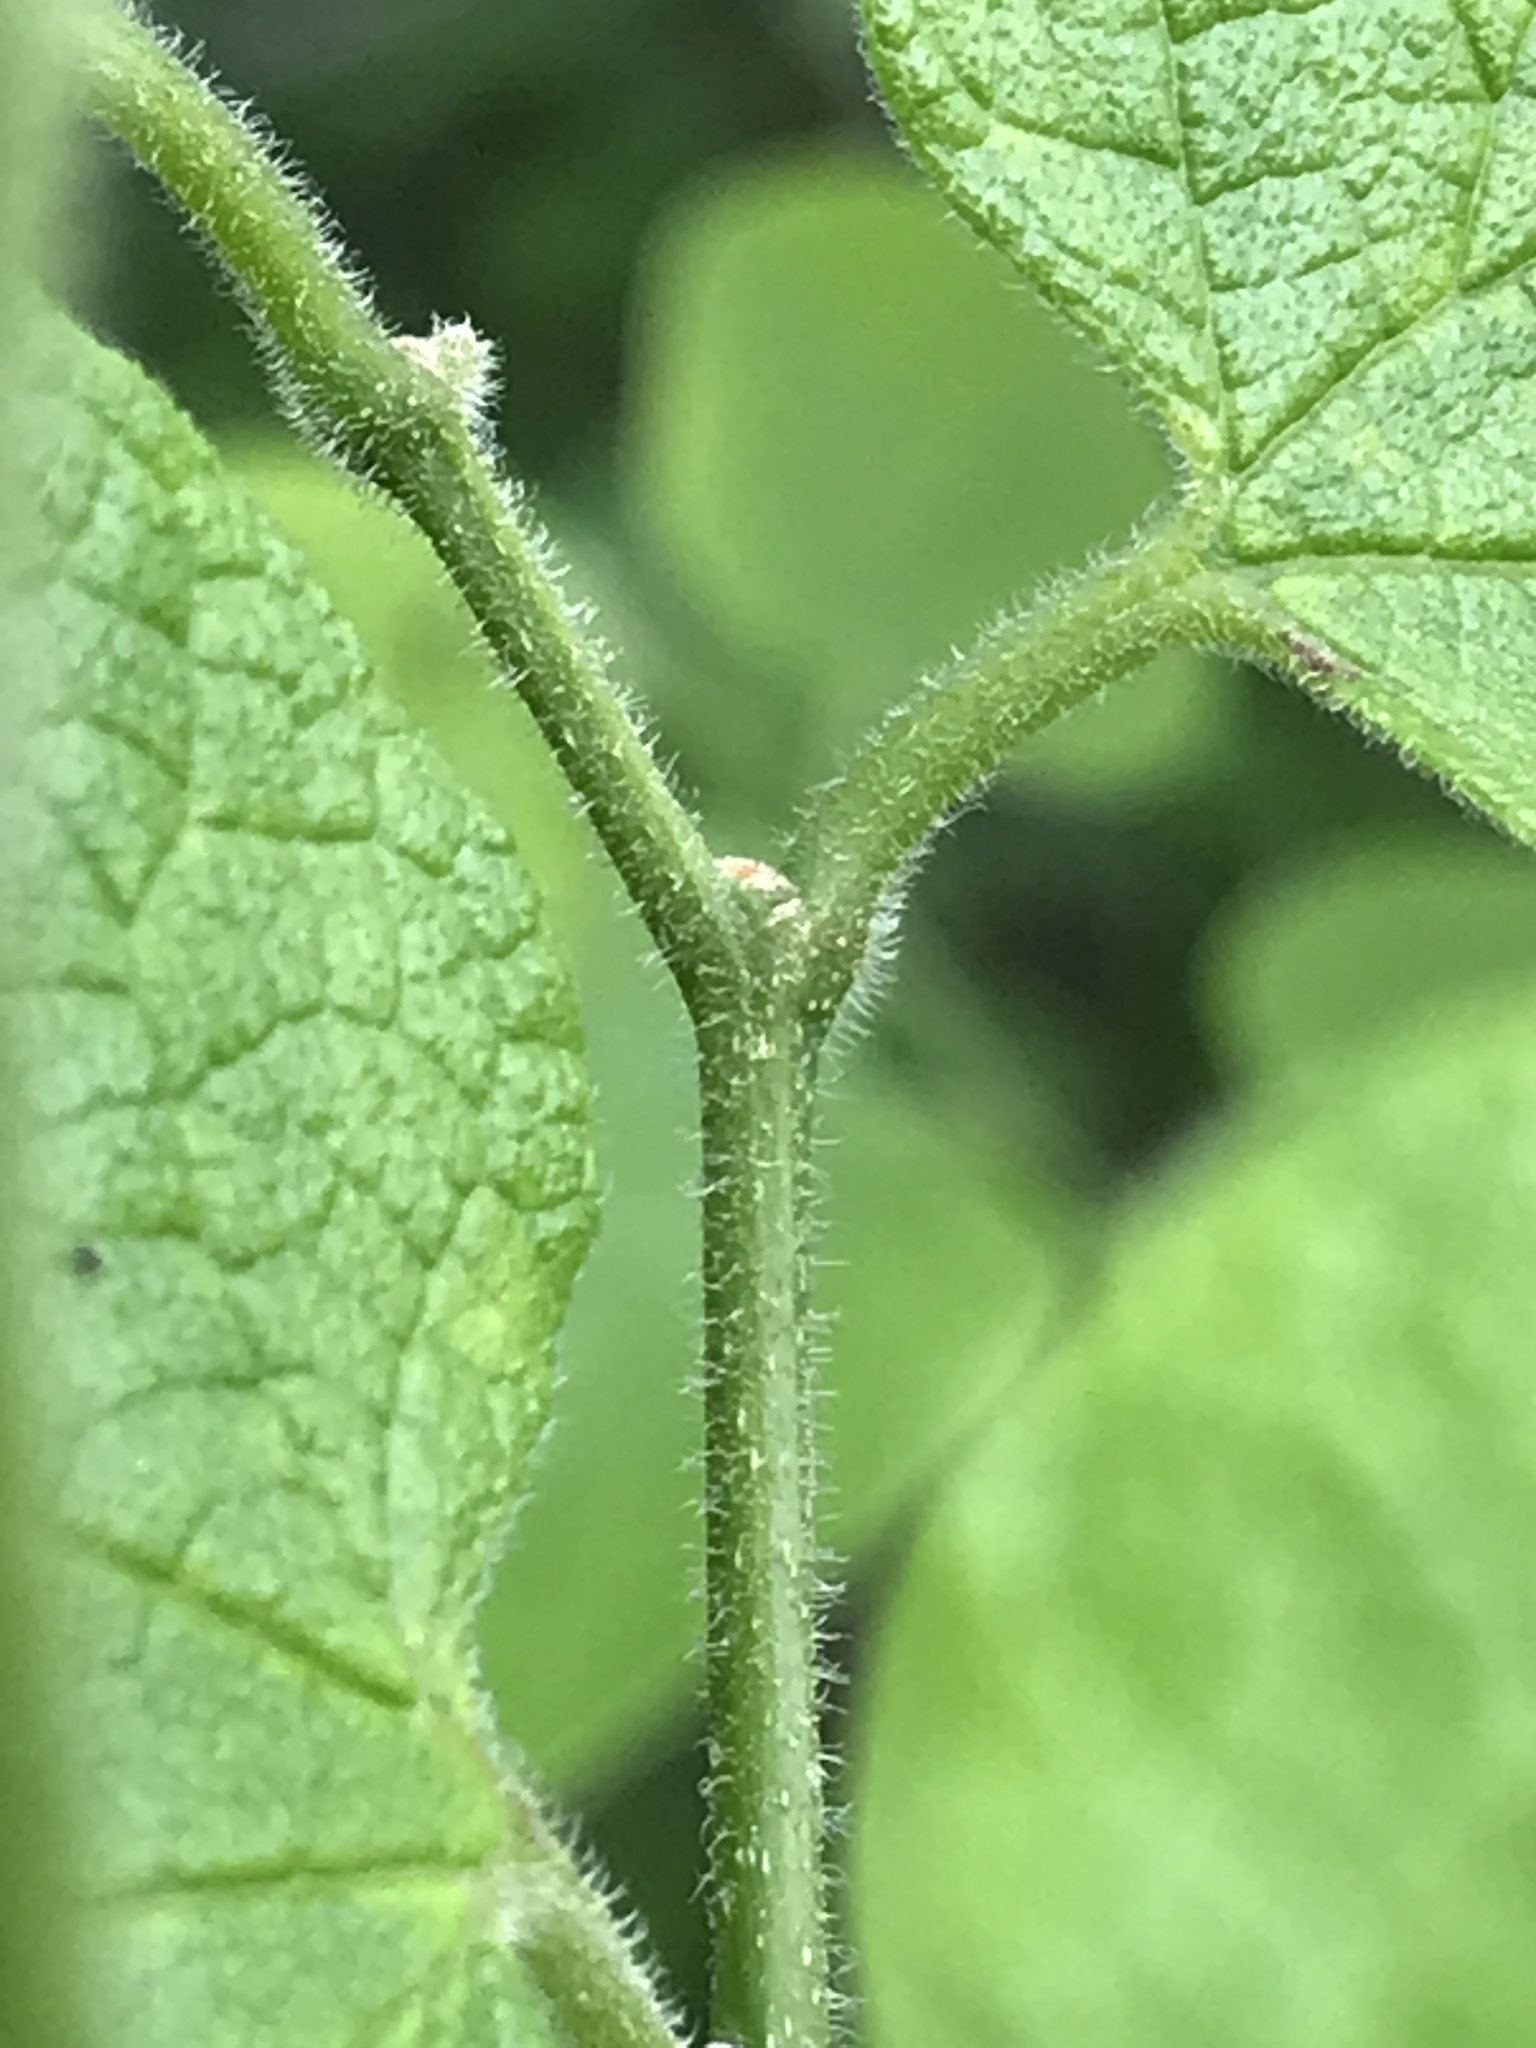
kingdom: Plantae
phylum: Tracheophyta
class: Magnoliopsida
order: Rosales
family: Cannabaceae
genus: Celtis
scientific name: Celtis reticulata
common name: Netleaf hackberry
